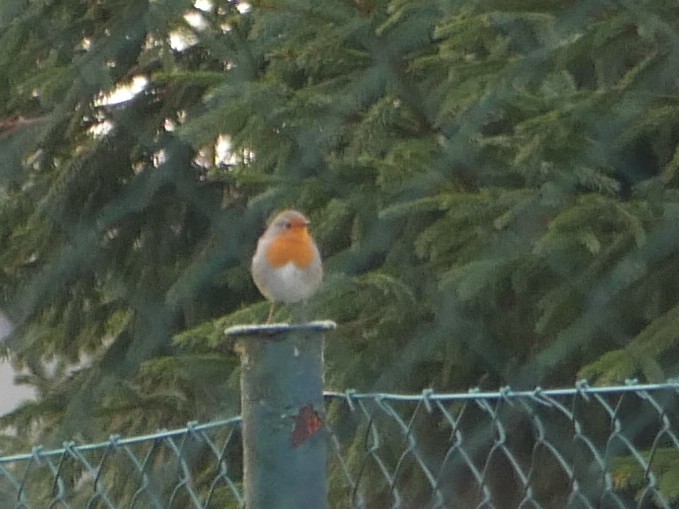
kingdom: Animalia
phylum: Chordata
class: Aves
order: Passeriformes
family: Muscicapidae
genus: Erithacus
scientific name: Erithacus rubecula
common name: European robin
